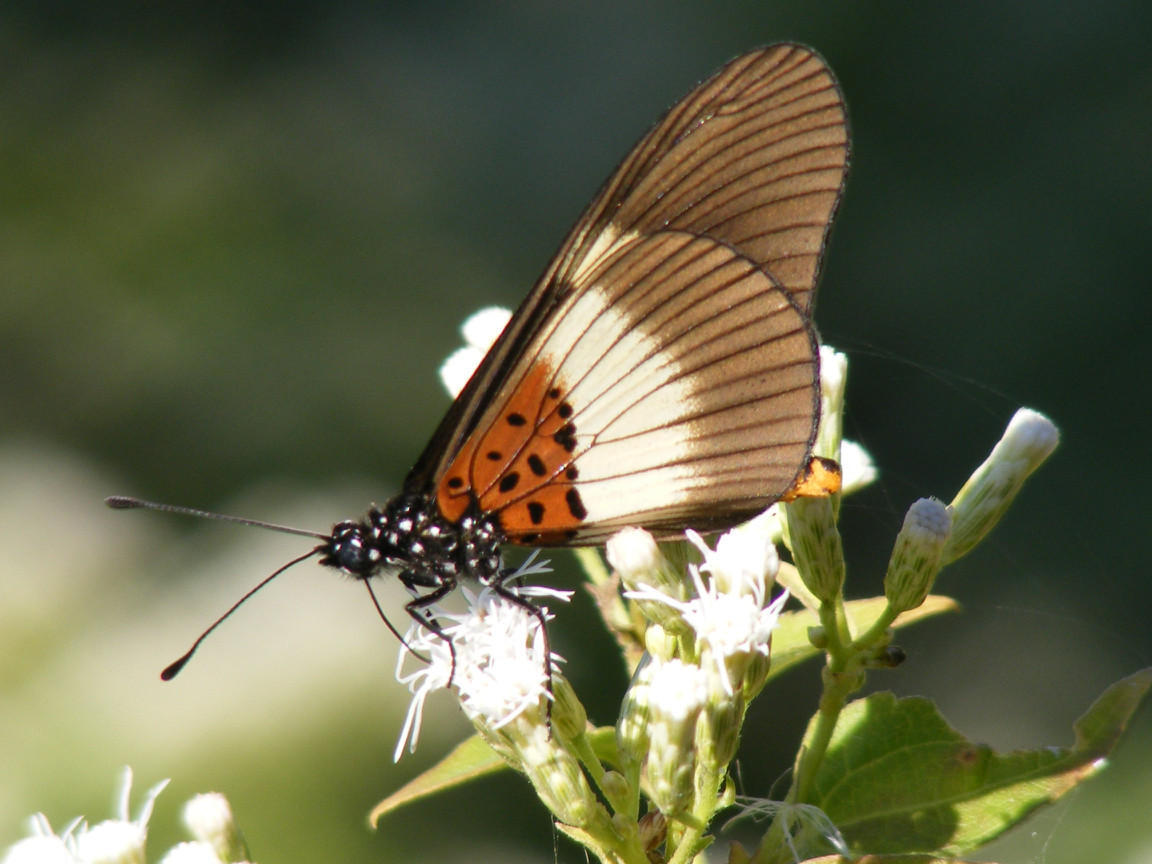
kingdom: Animalia
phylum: Arthropoda
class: Insecta
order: Lepidoptera
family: Nymphalidae
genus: Acraea
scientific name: Acraea Bematistes aganice
